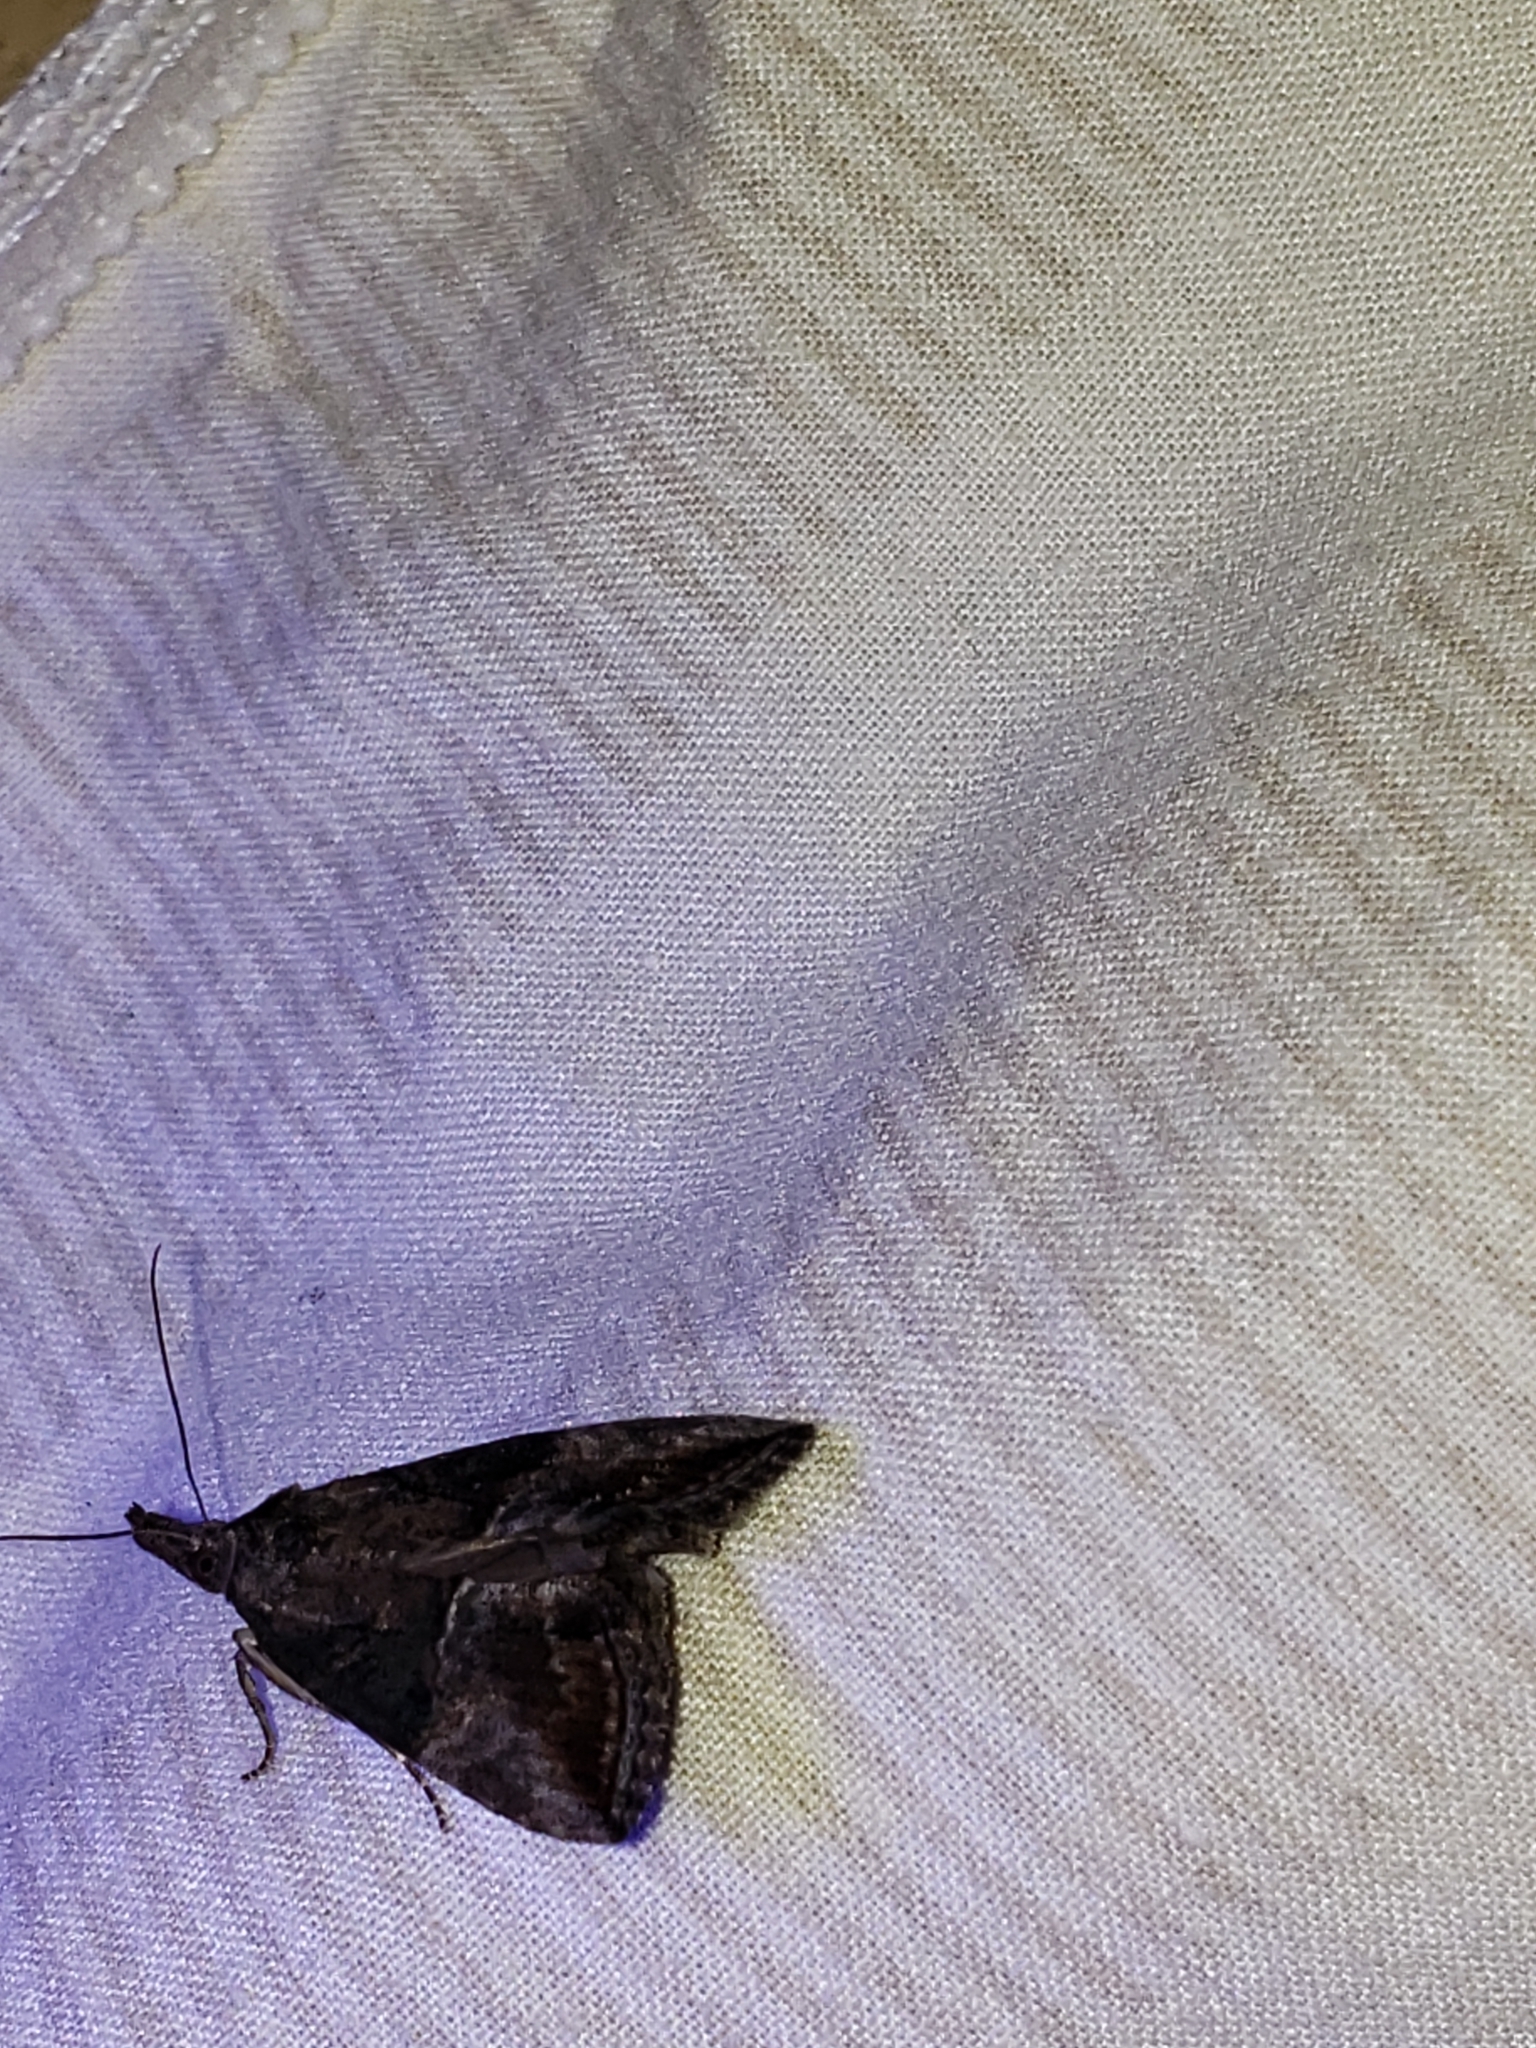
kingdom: Animalia
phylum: Arthropoda
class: Insecta
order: Lepidoptera
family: Erebidae
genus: Hypena
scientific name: Hypena scabra
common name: Green cloverworm
